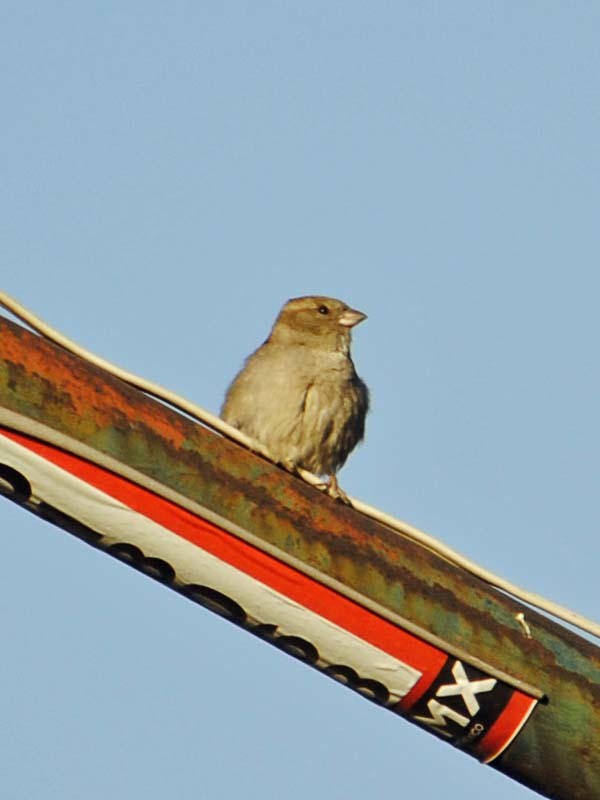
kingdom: Animalia
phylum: Chordata
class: Aves
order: Passeriformes
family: Passeridae
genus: Passer
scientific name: Passer domesticus
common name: House sparrow
